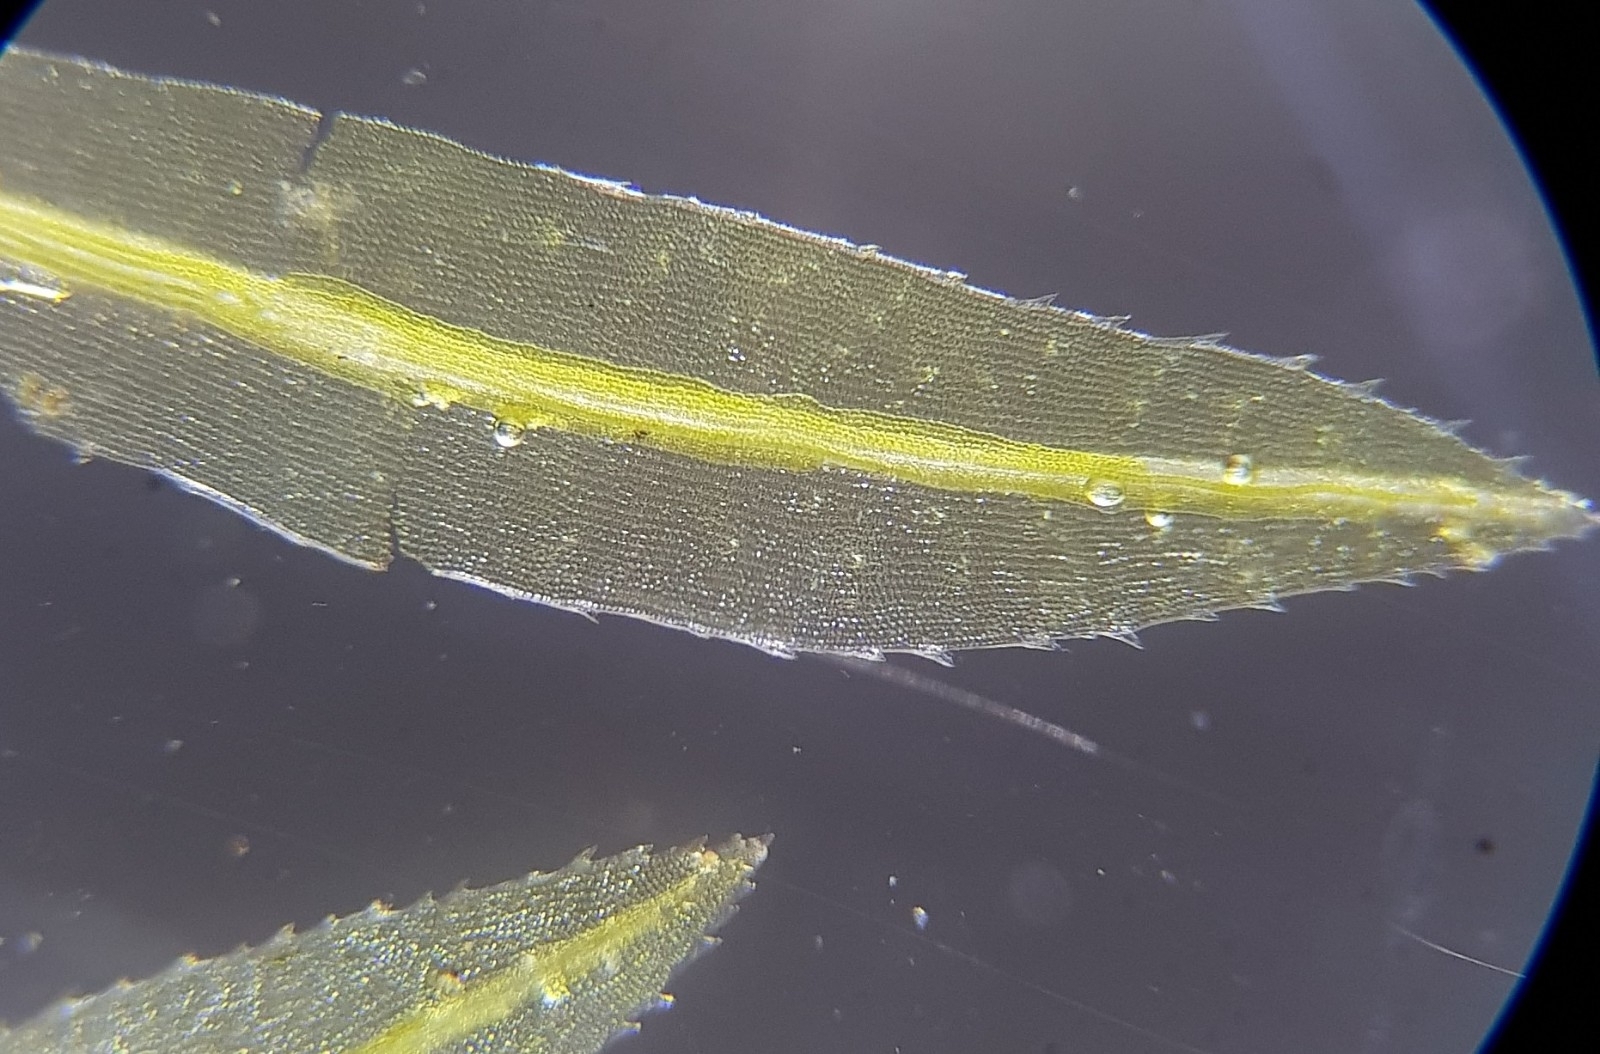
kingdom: Plantae
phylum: Bryophyta
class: Polytrichopsida
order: Polytrichales
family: Polytrichaceae
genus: Atrichum
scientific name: Atrichum undulatum
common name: Common smoothcap
